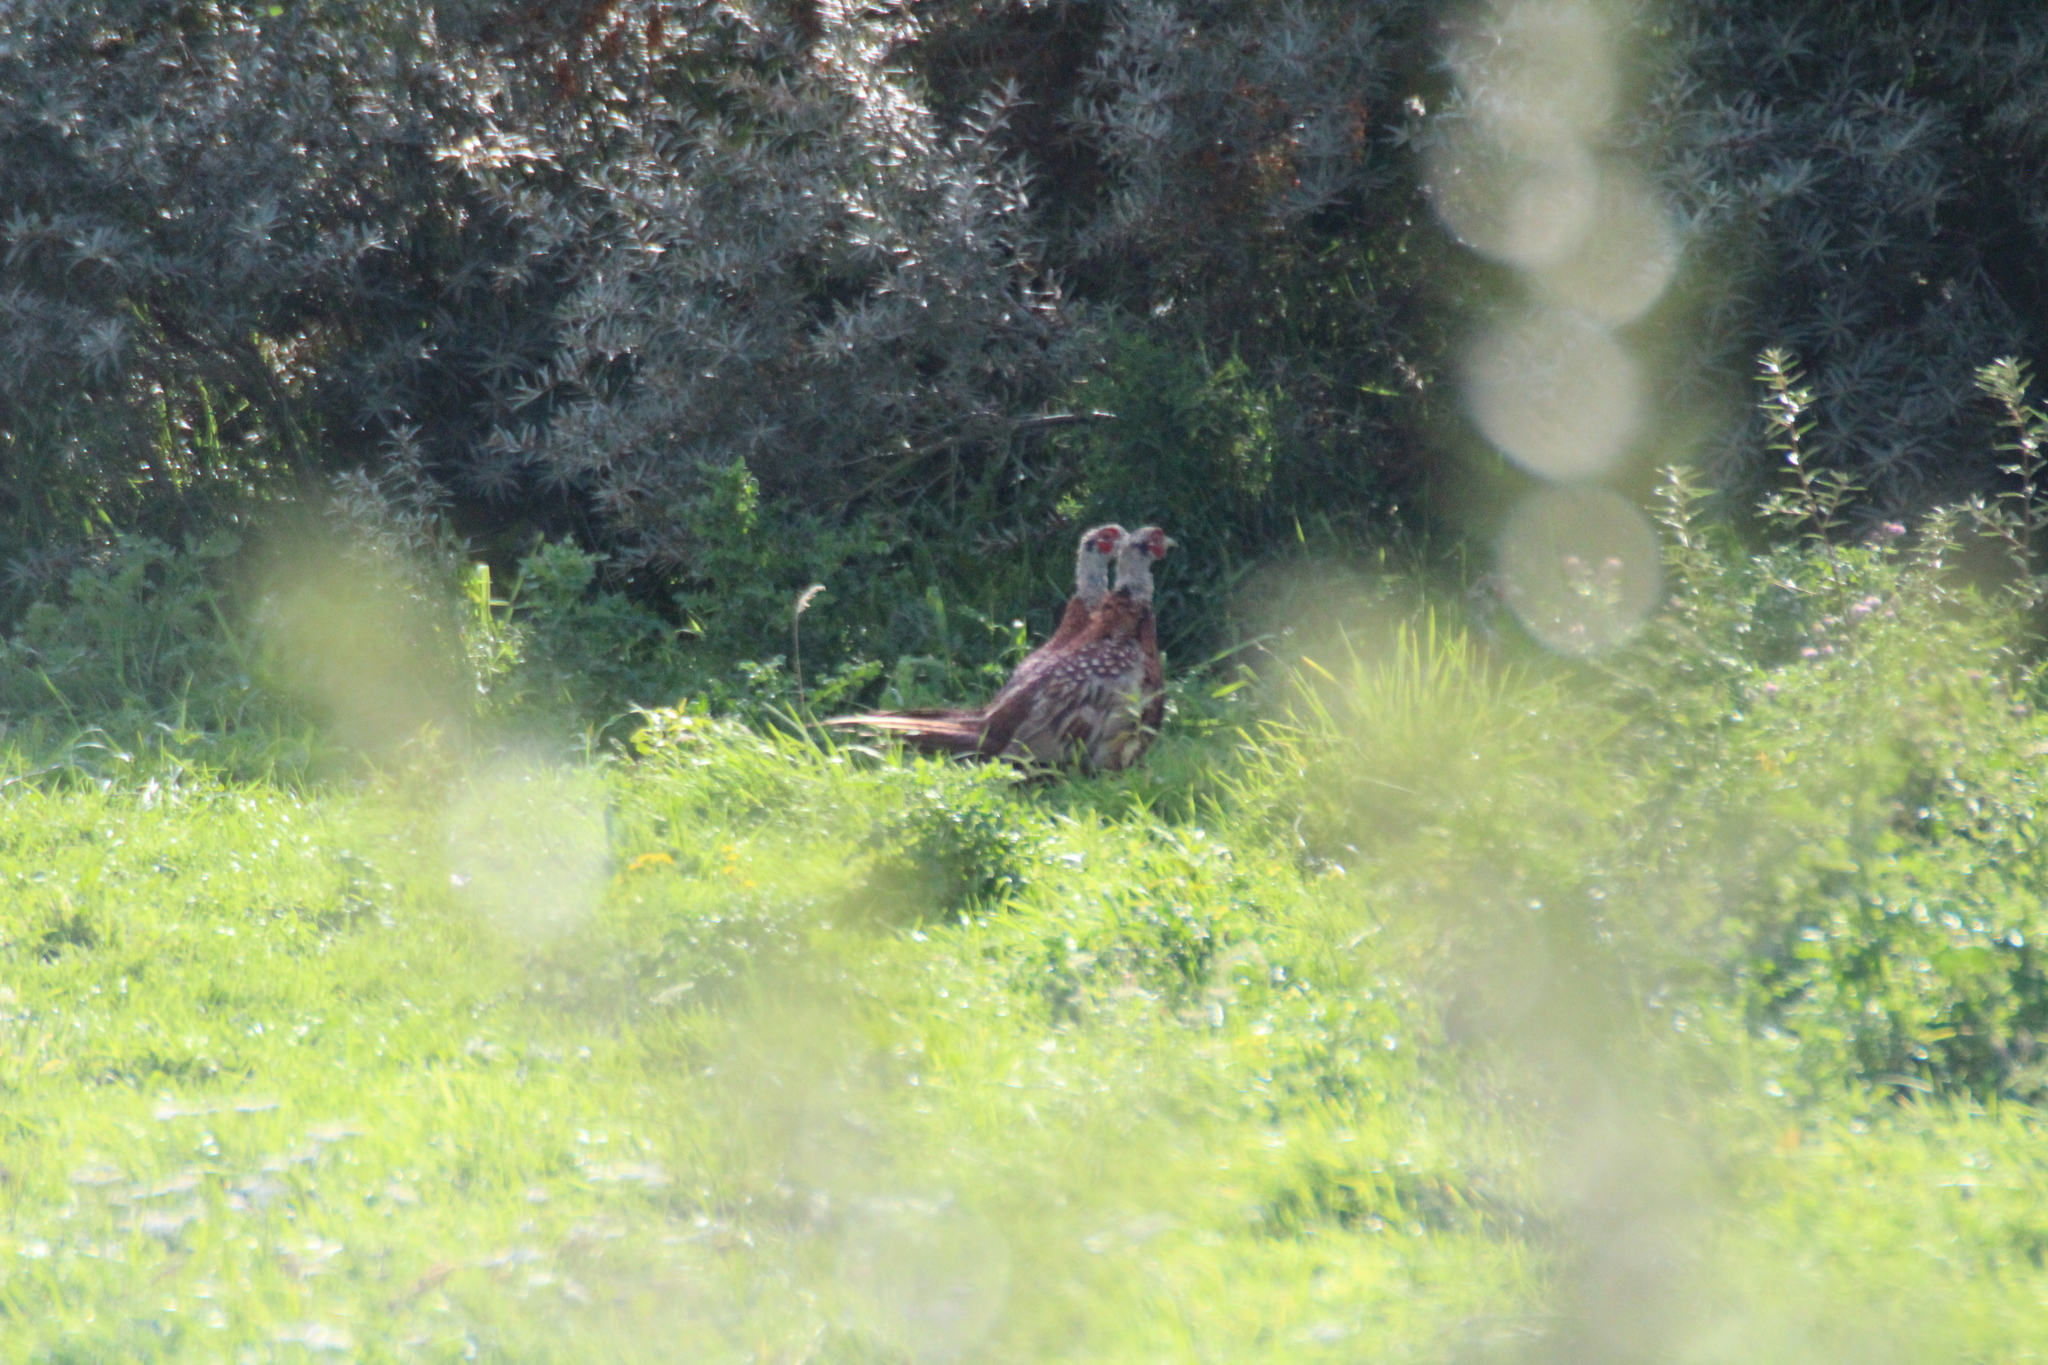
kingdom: Animalia
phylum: Chordata
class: Aves
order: Galliformes
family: Phasianidae
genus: Phasianus
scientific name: Phasianus colchicus
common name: Common pheasant
